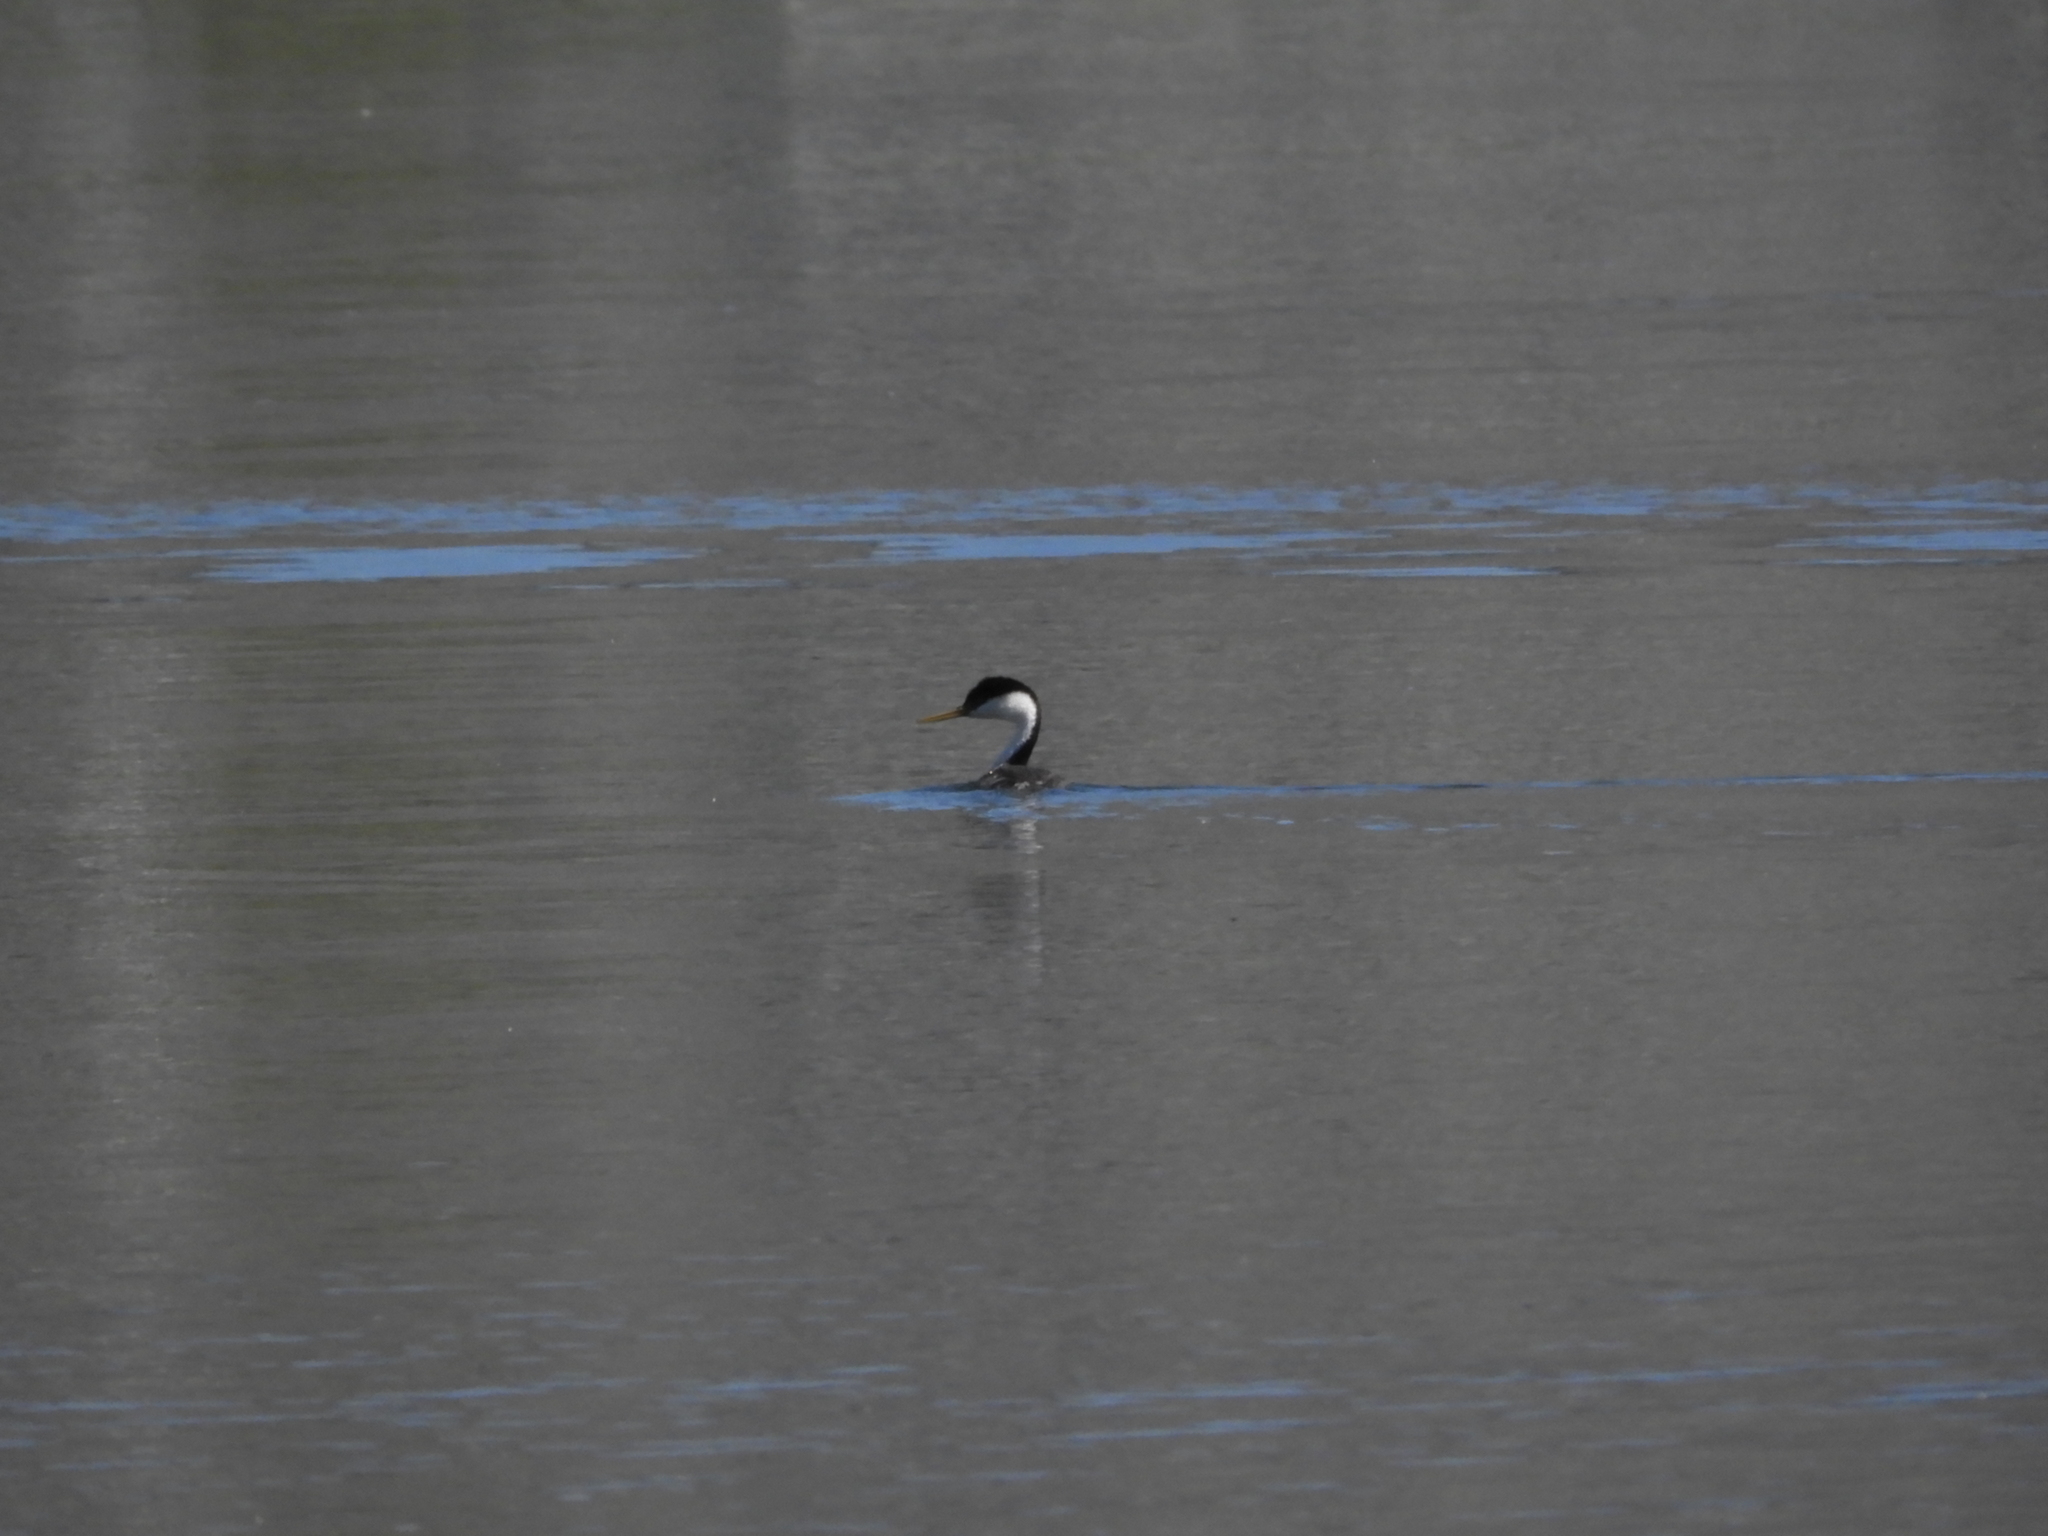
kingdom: Animalia
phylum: Chordata
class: Aves
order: Podicipediformes
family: Podicipedidae
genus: Aechmophorus
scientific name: Aechmophorus occidentalis
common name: Western grebe
